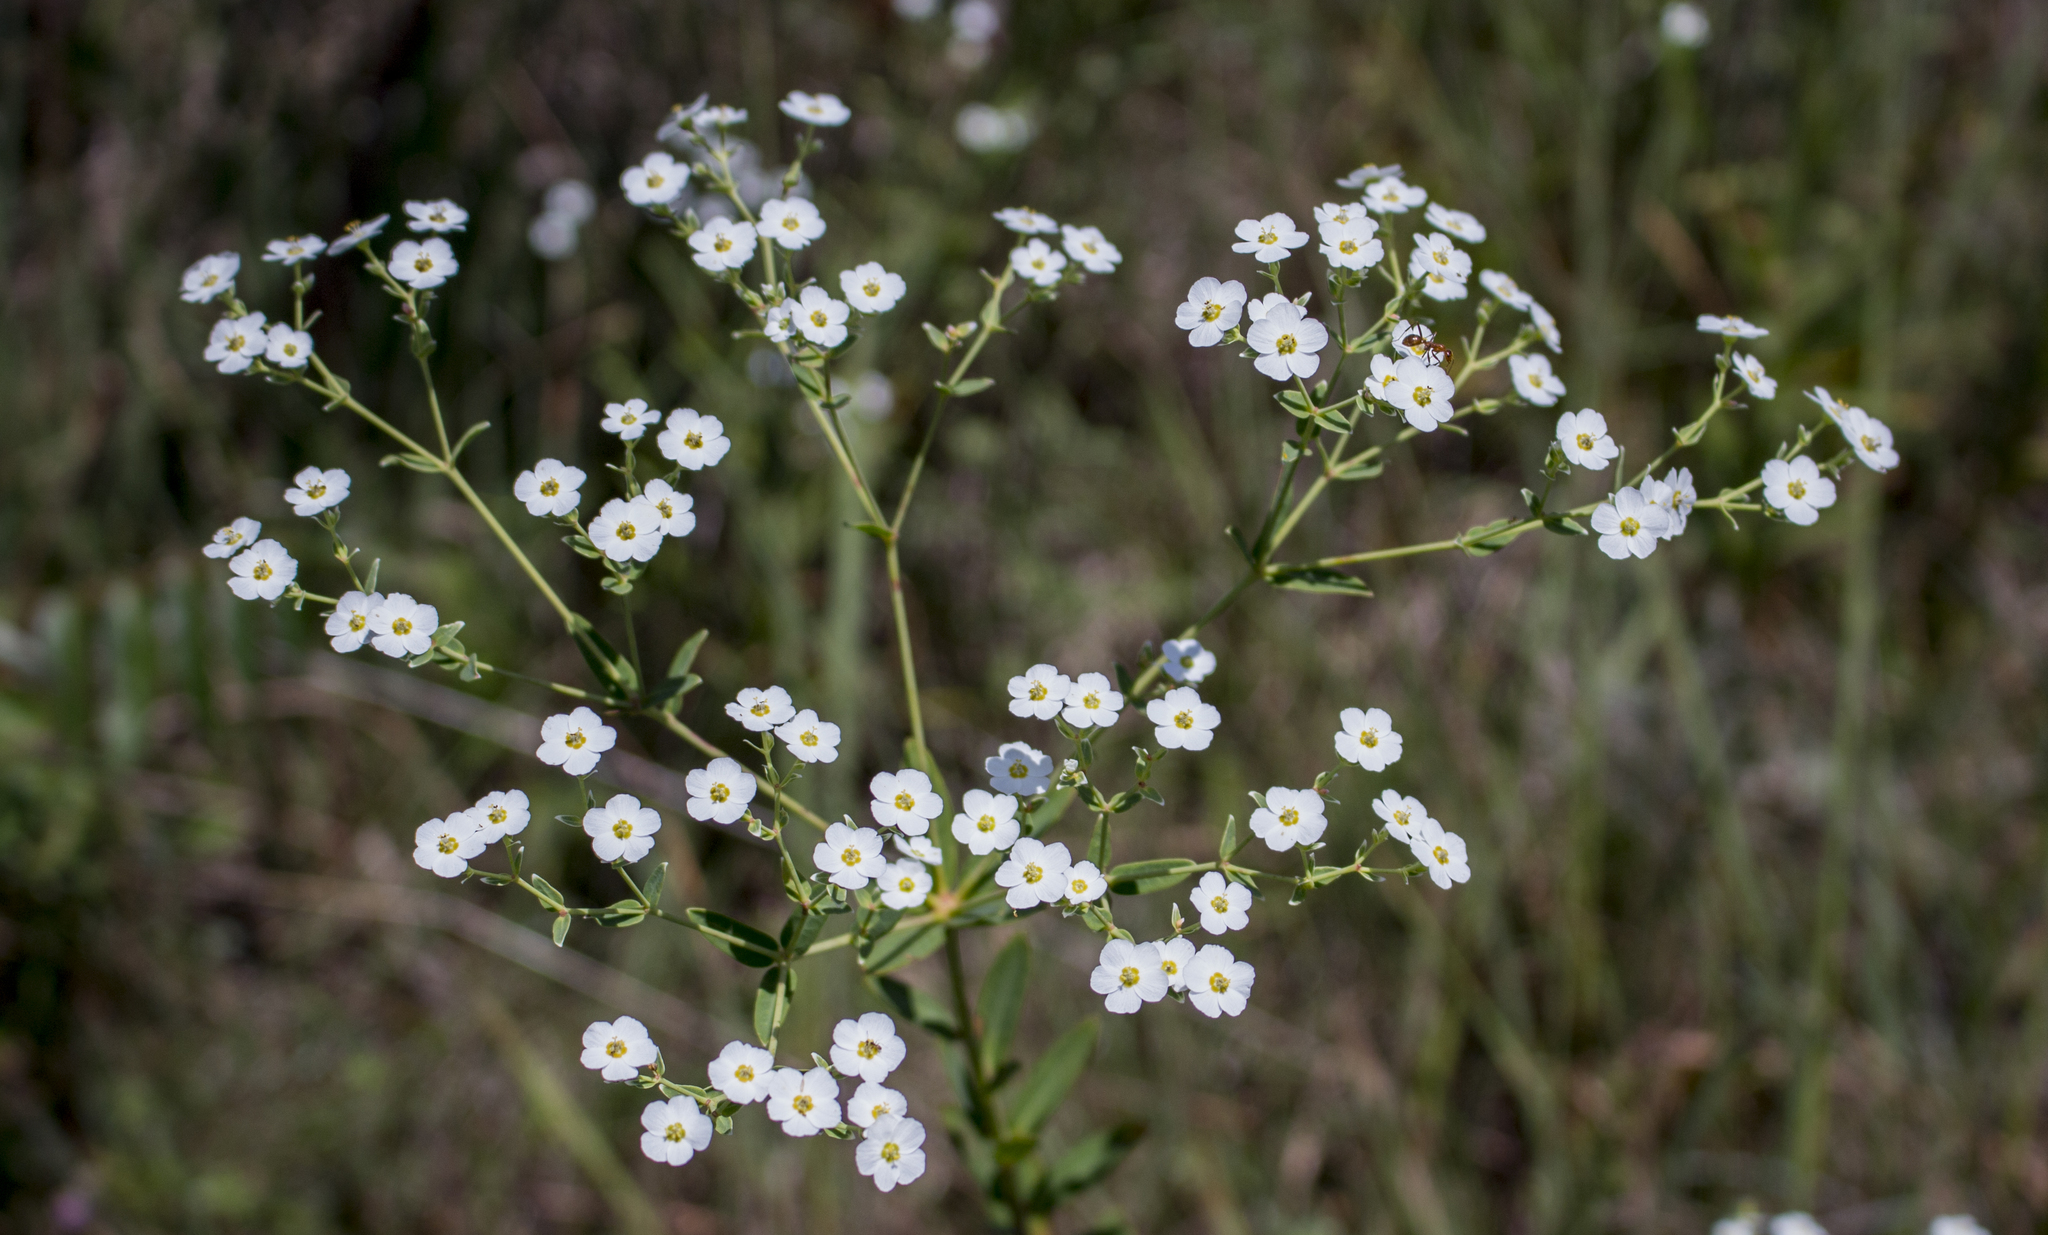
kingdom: Plantae
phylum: Tracheophyta
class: Magnoliopsida
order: Malpighiales
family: Euphorbiaceae
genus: Euphorbia
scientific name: Euphorbia corollata
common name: Flowering spurge
